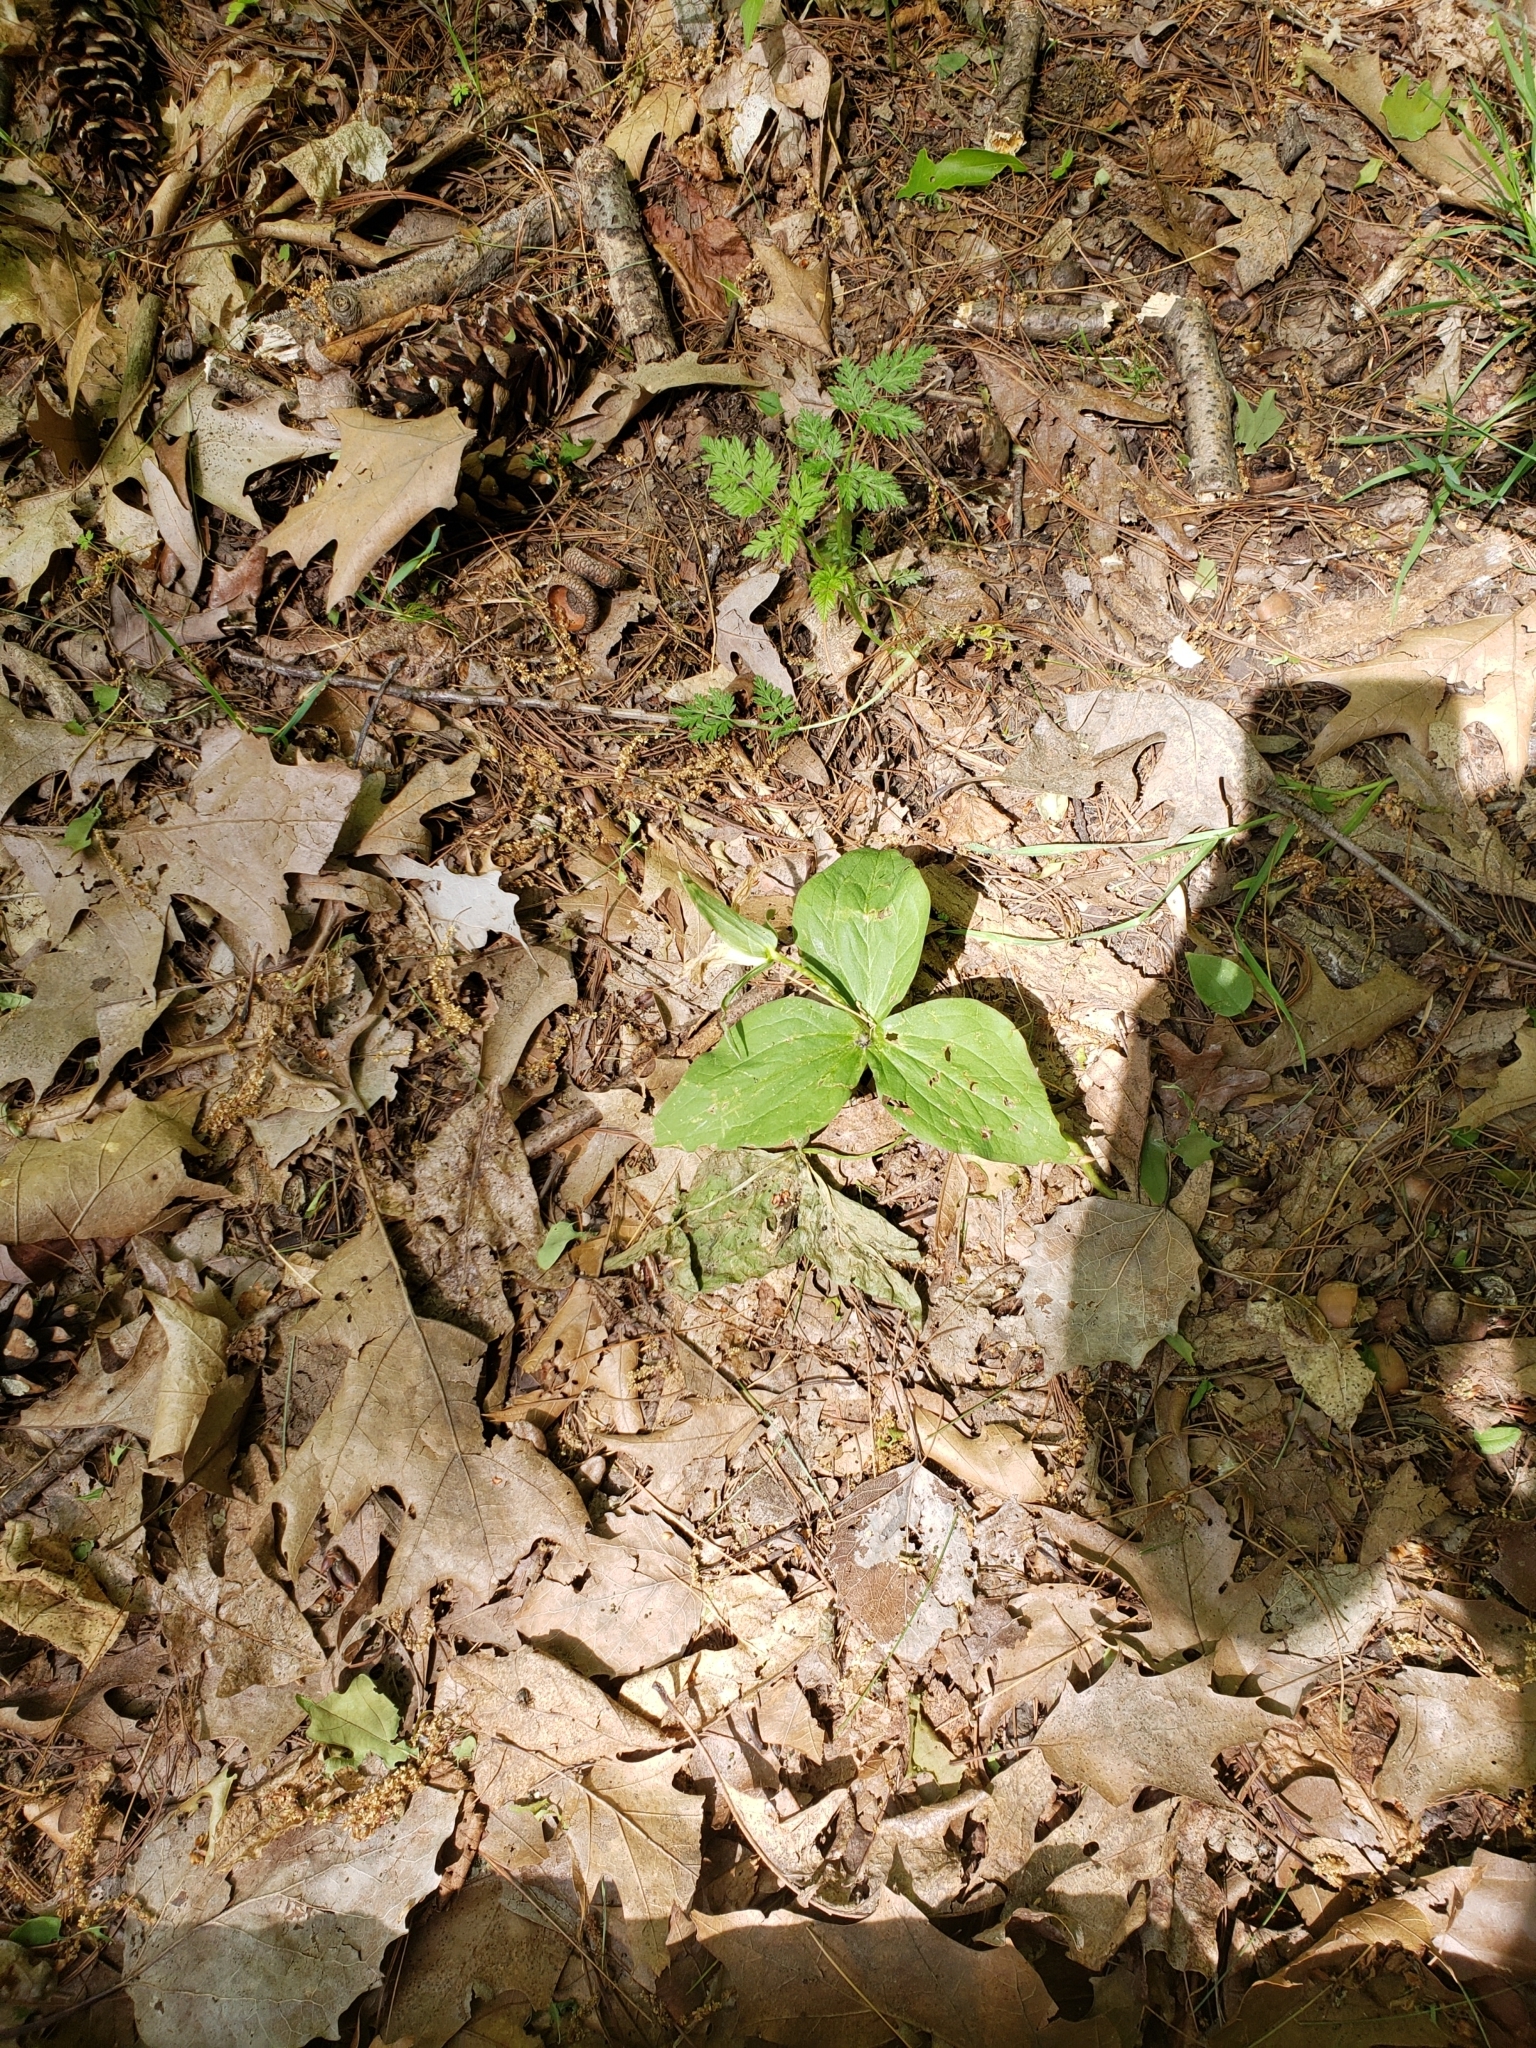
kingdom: Plantae
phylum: Tracheophyta
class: Liliopsida
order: Liliales
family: Melanthiaceae
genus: Trillium
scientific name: Trillium grandiflorum
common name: Great white trillium
